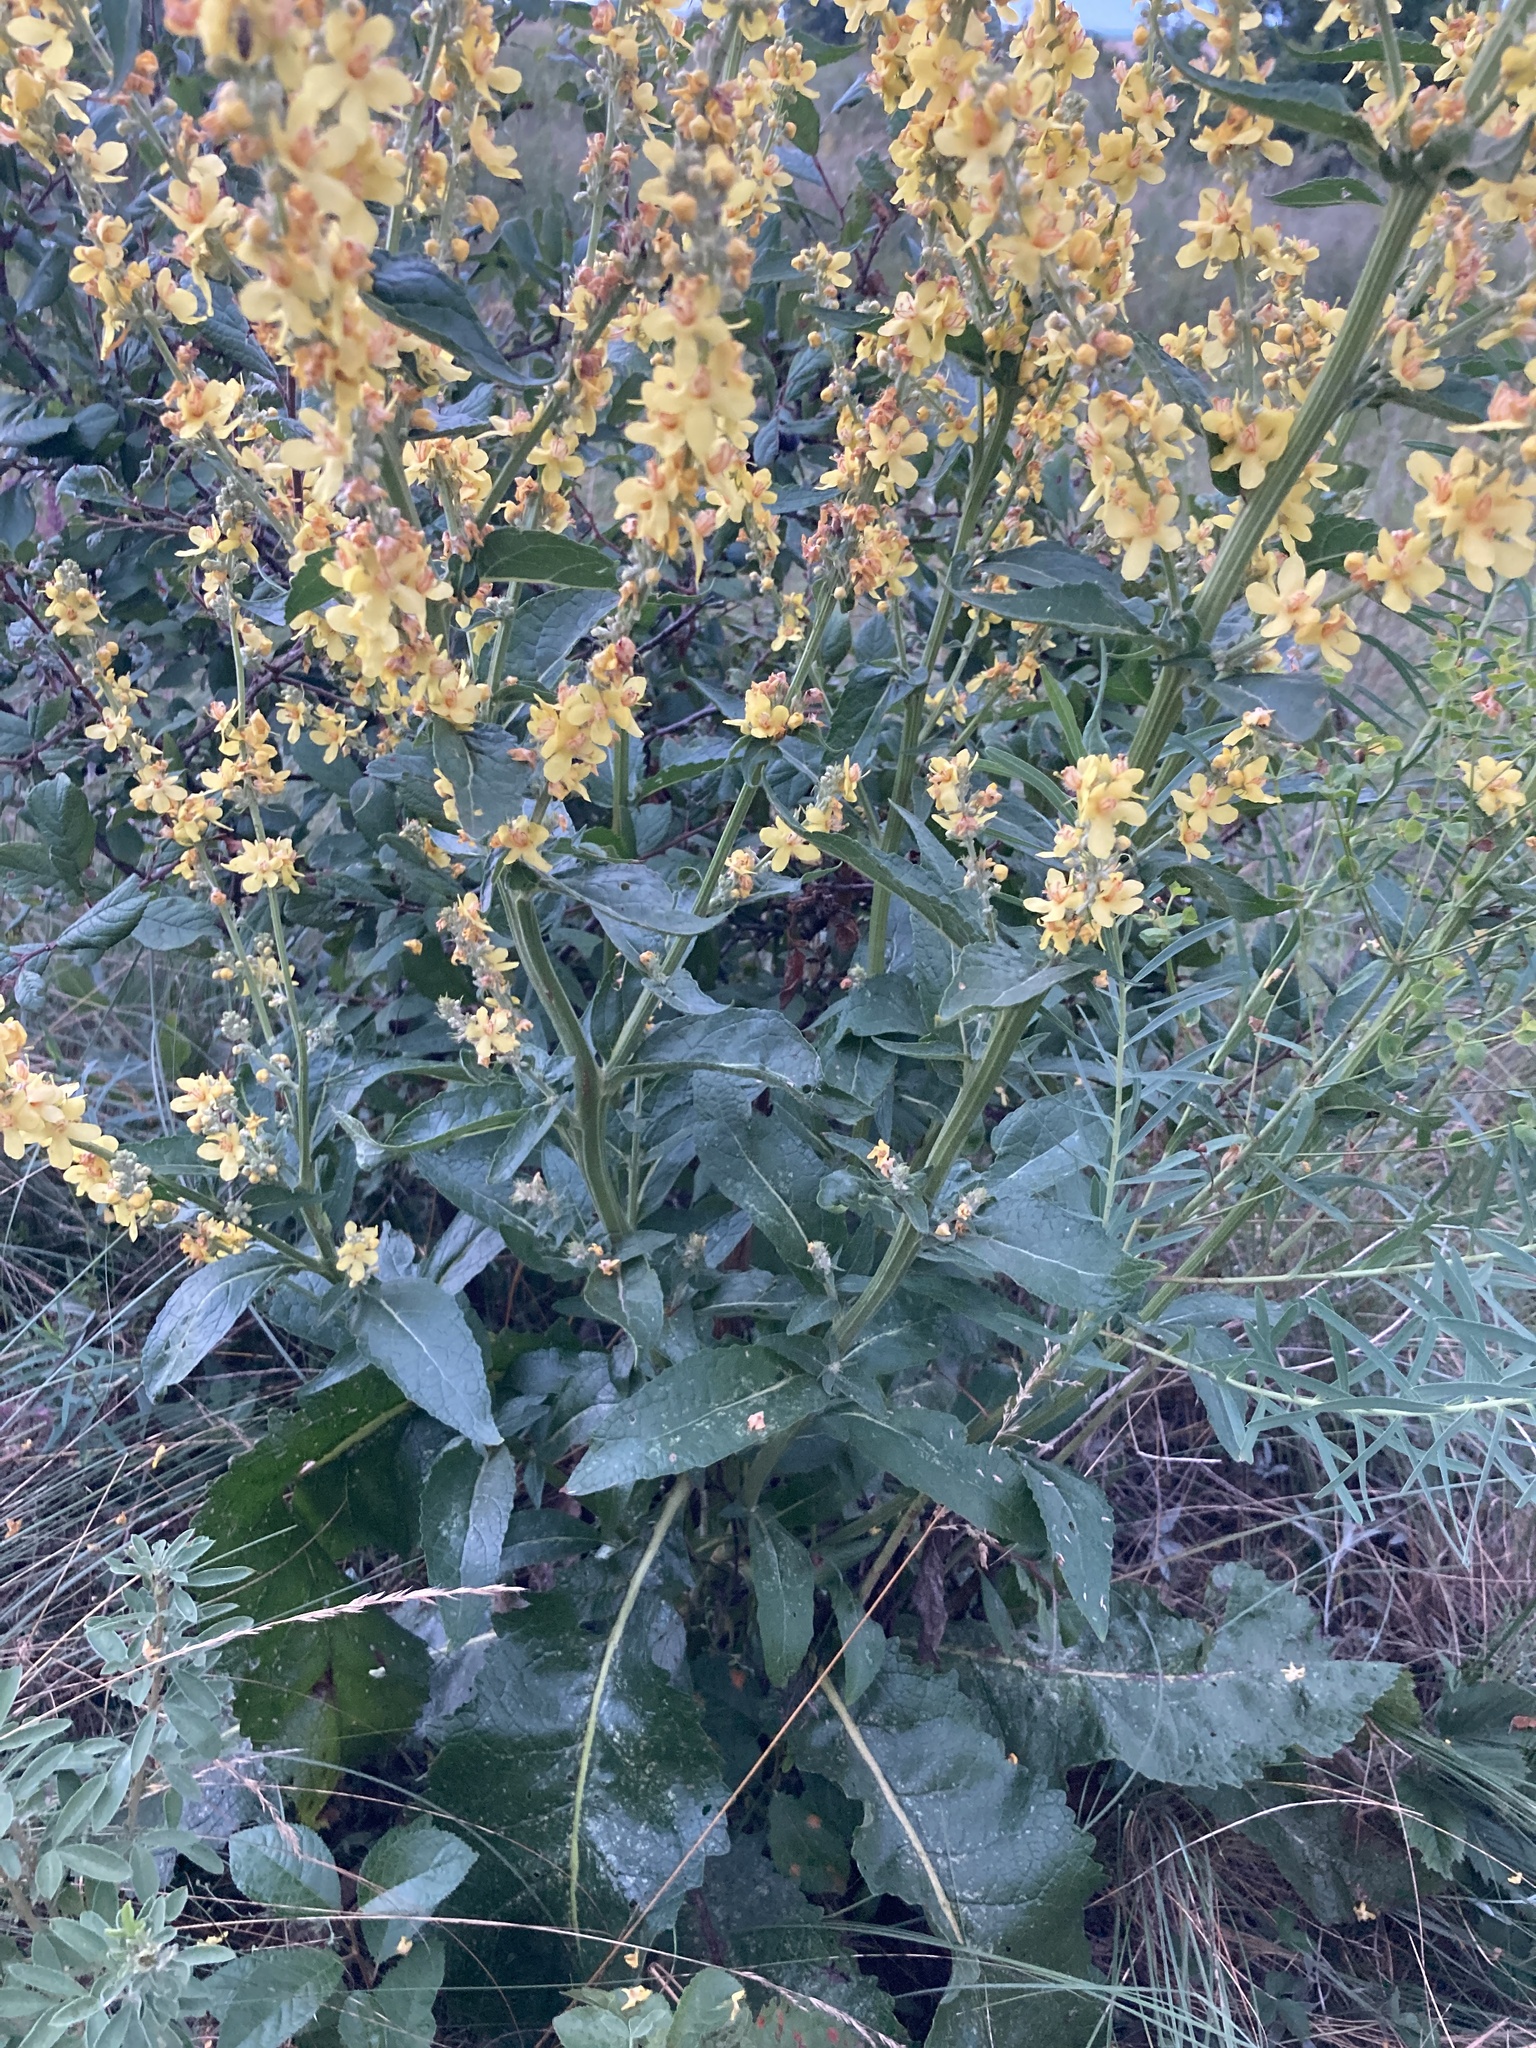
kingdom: Plantae
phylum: Tracheophyta
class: Magnoliopsida
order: Lamiales
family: Scrophulariaceae
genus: Verbascum
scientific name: Verbascum lychnitis
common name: White mullein
